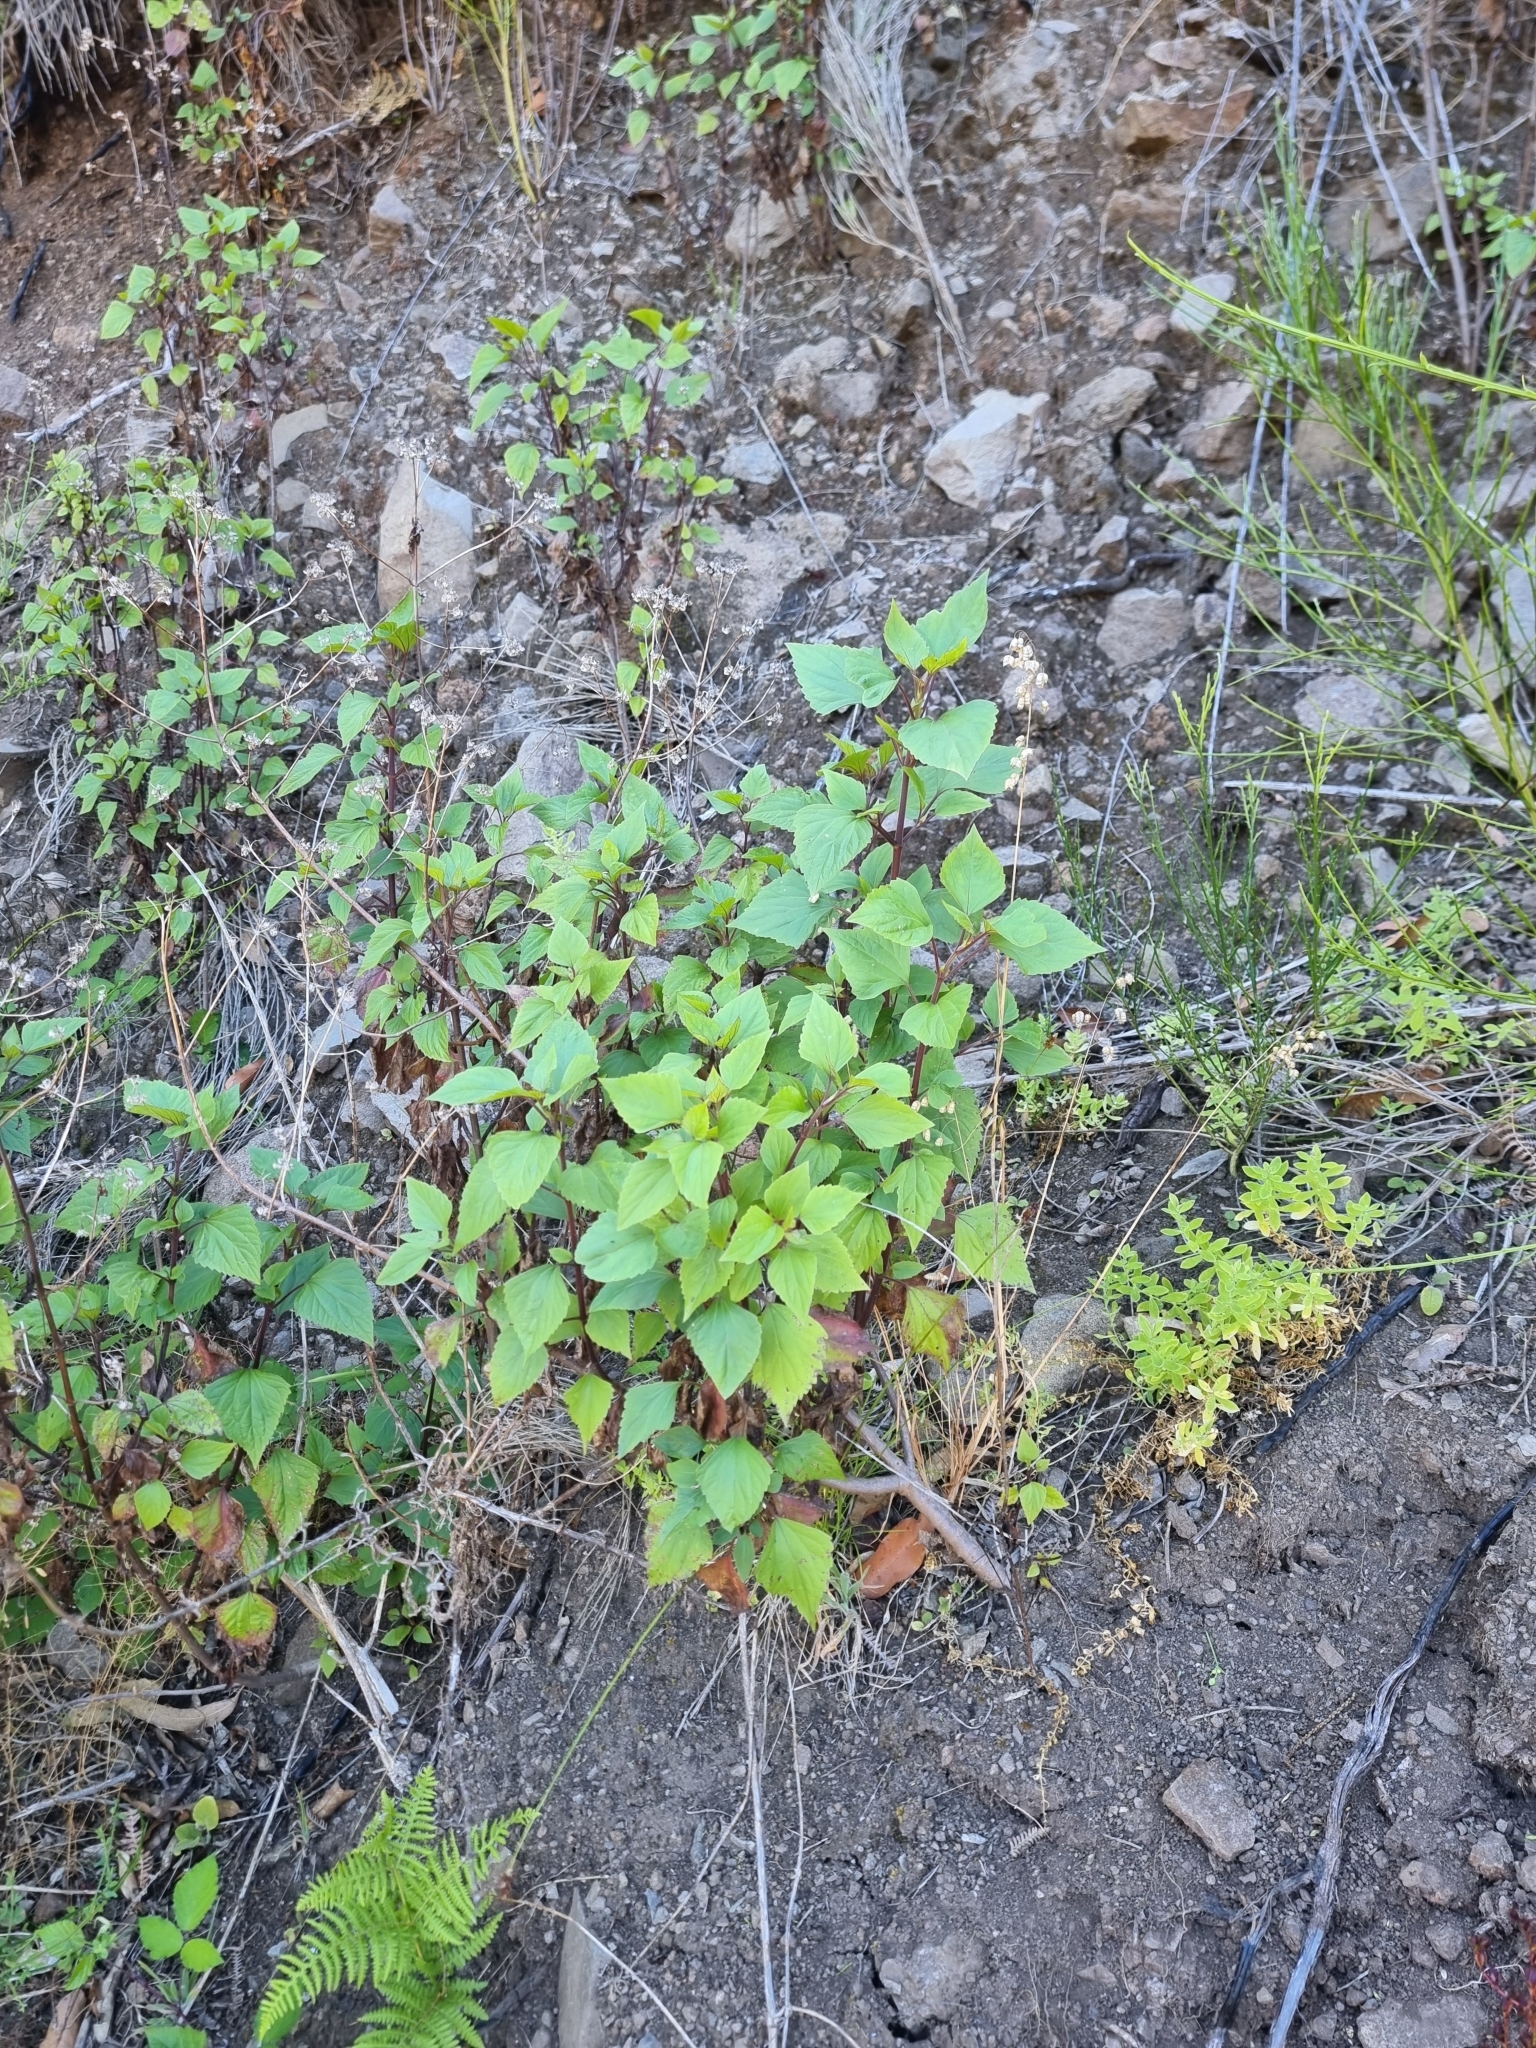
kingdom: Plantae
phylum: Tracheophyta
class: Magnoliopsida
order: Asterales
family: Asteraceae
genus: Ageratina
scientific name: Ageratina adenophora
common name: Sticky snakeroot
